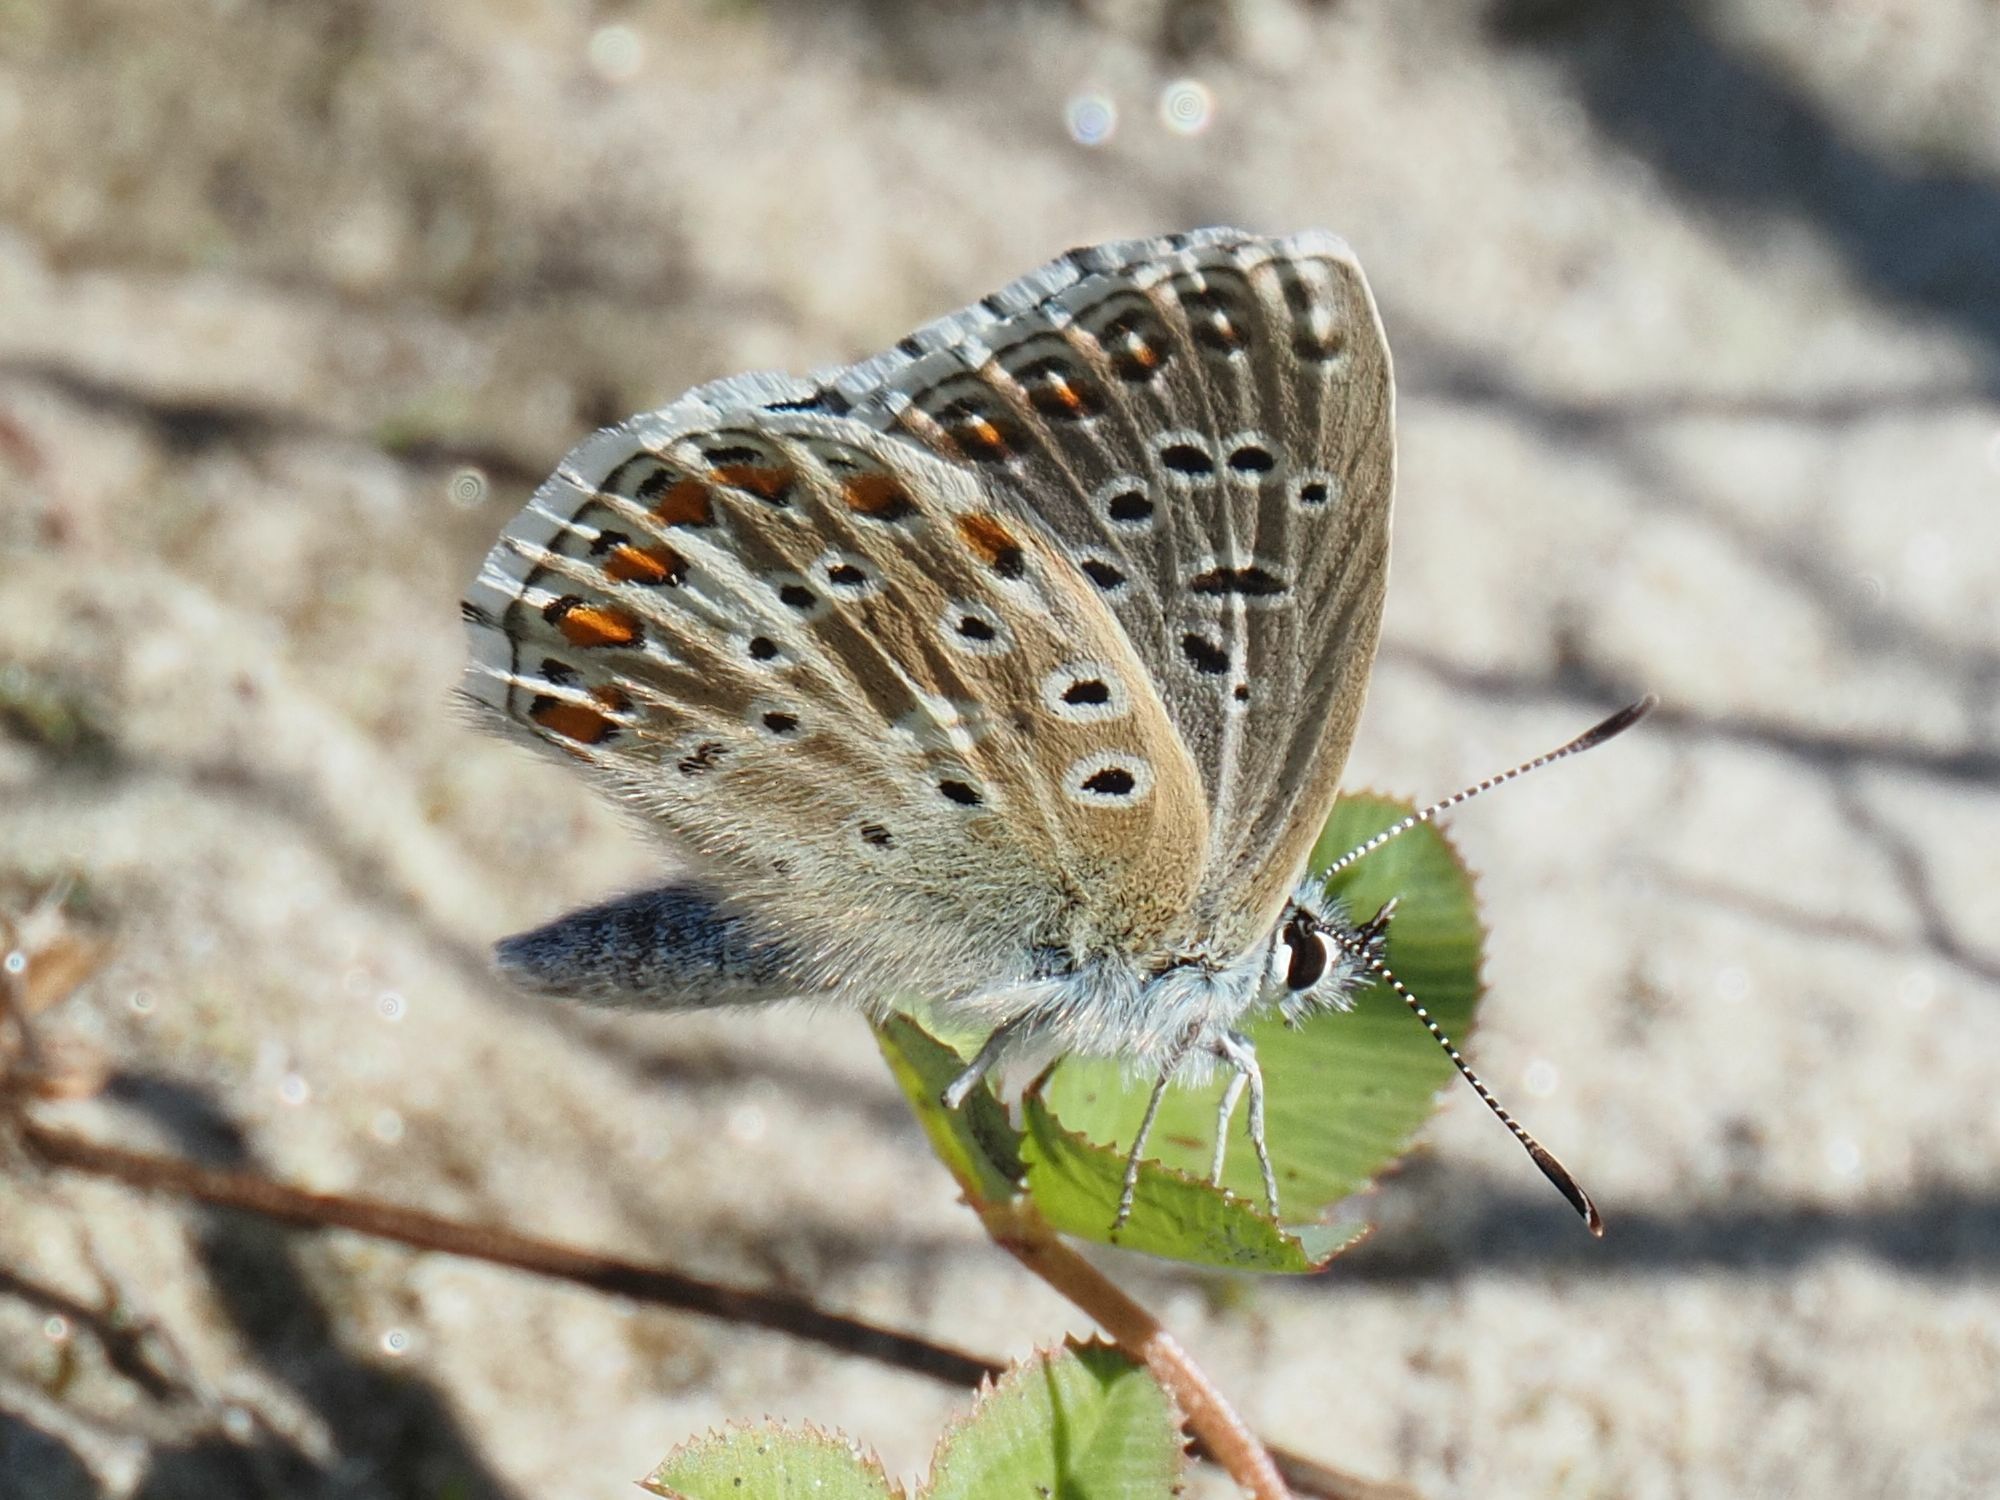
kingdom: Animalia
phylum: Arthropoda
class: Insecta
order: Lepidoptera
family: Lycaenidae
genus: Lysandra
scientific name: Lysandra bellargus
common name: Adonis blue
